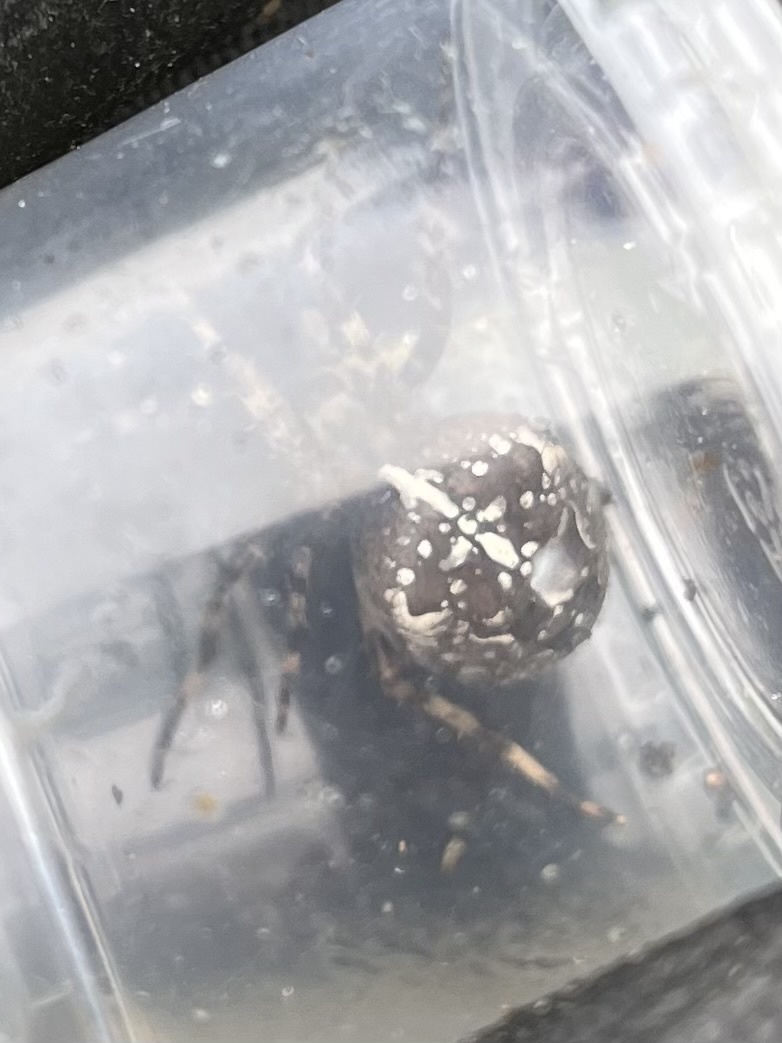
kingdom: Animalia
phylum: Arthropoda
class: Arachnida
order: Araneae
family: Araneidae
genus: Araneus
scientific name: Araneus diadematus
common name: Cross orbweaver
